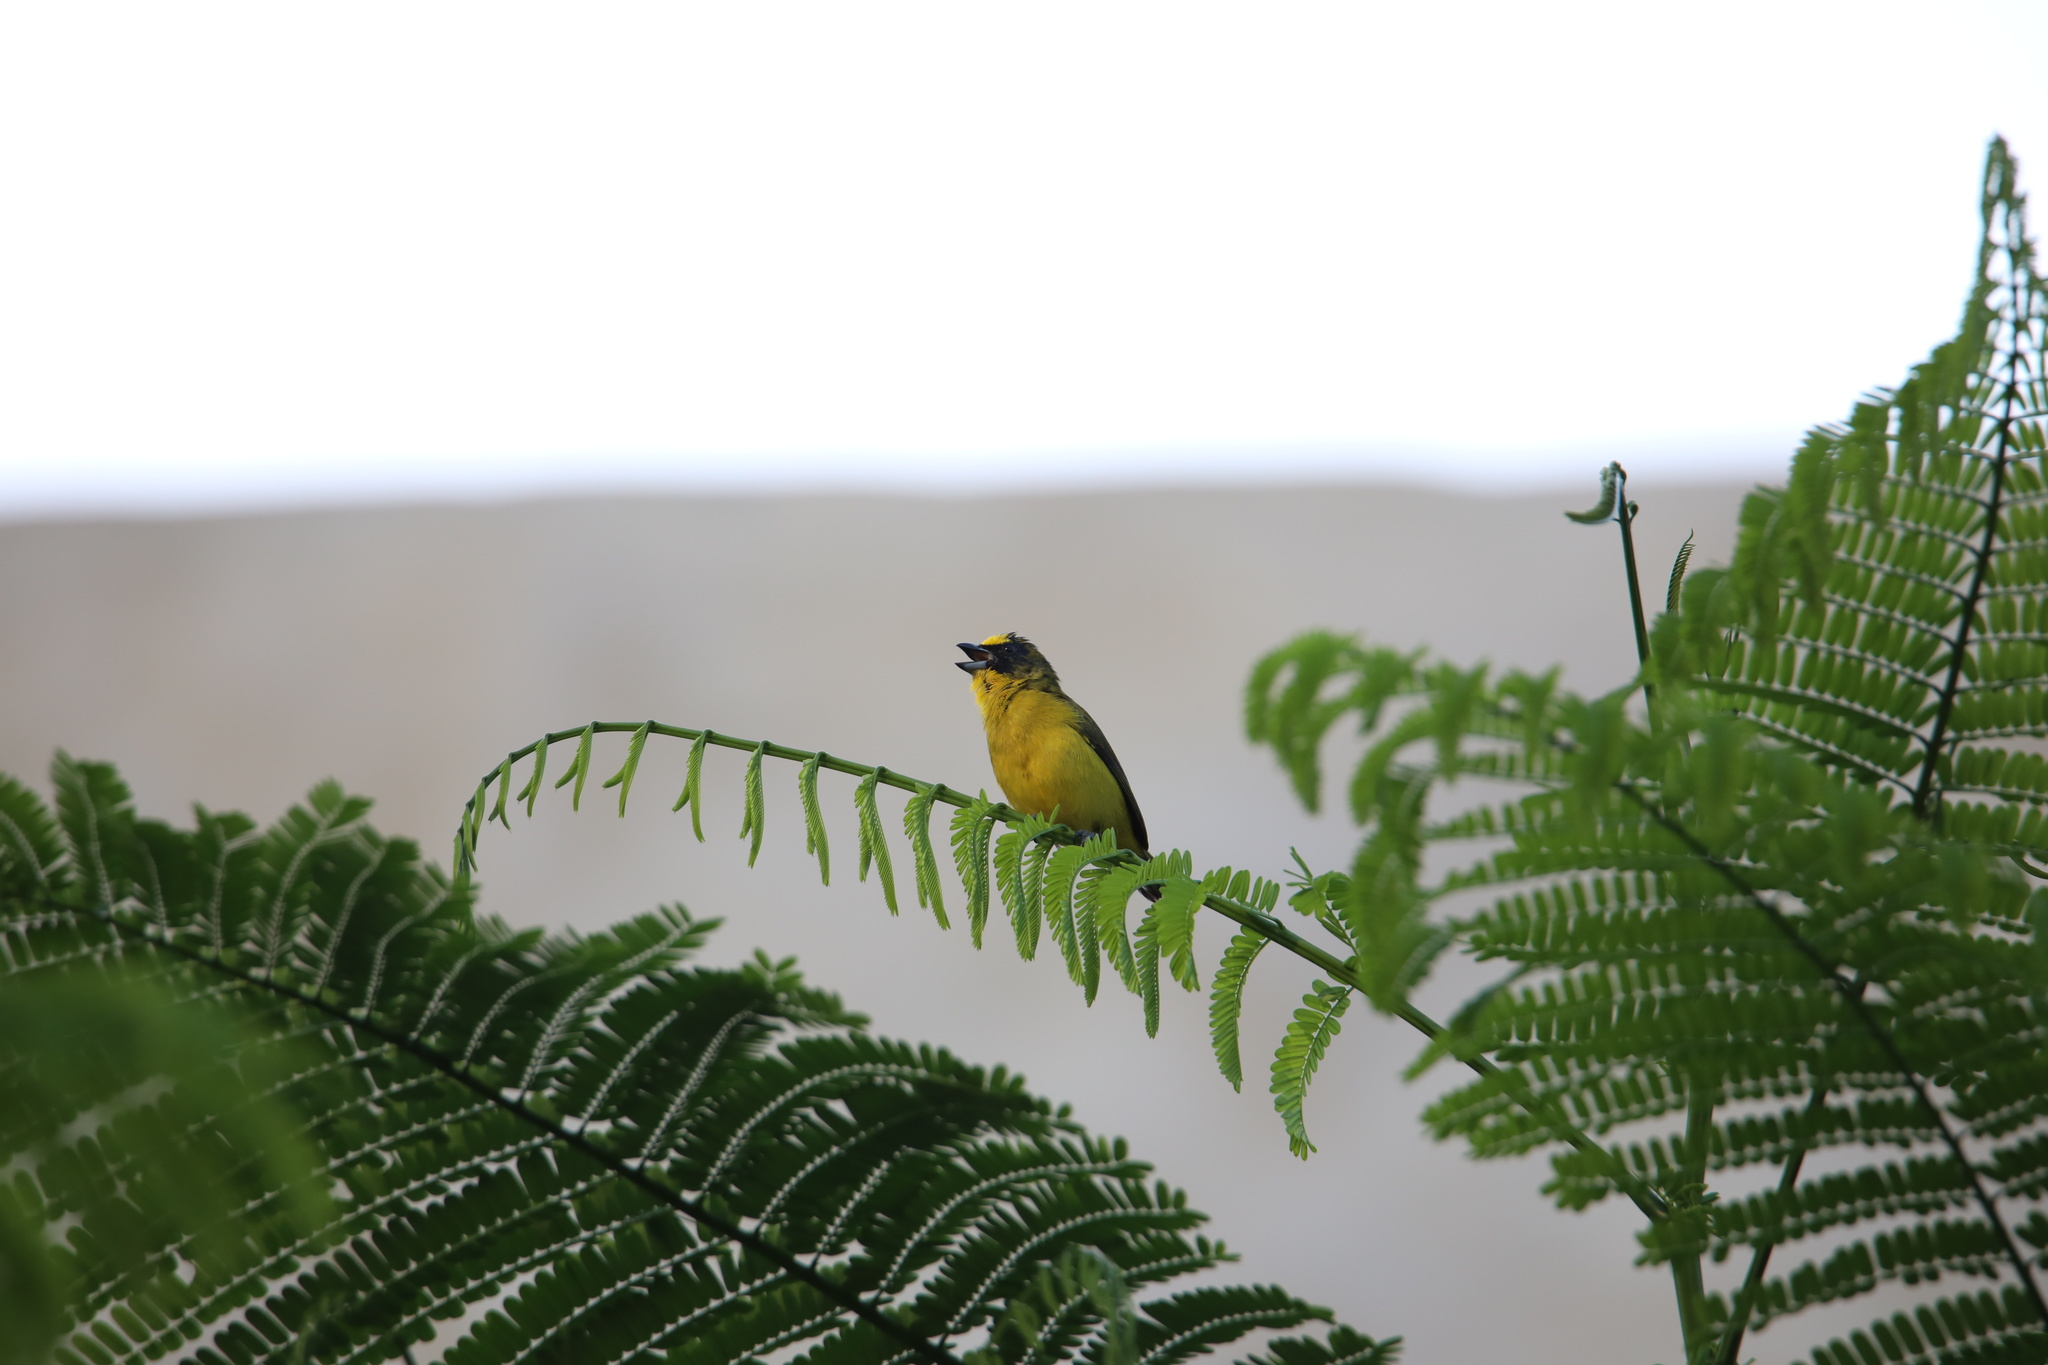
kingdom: Animalia
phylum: Chordata
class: Aves
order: Passeriformes
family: Fringillidae
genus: Euphonia
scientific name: Euphonia laniirostris
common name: Thick-billed euphonia
